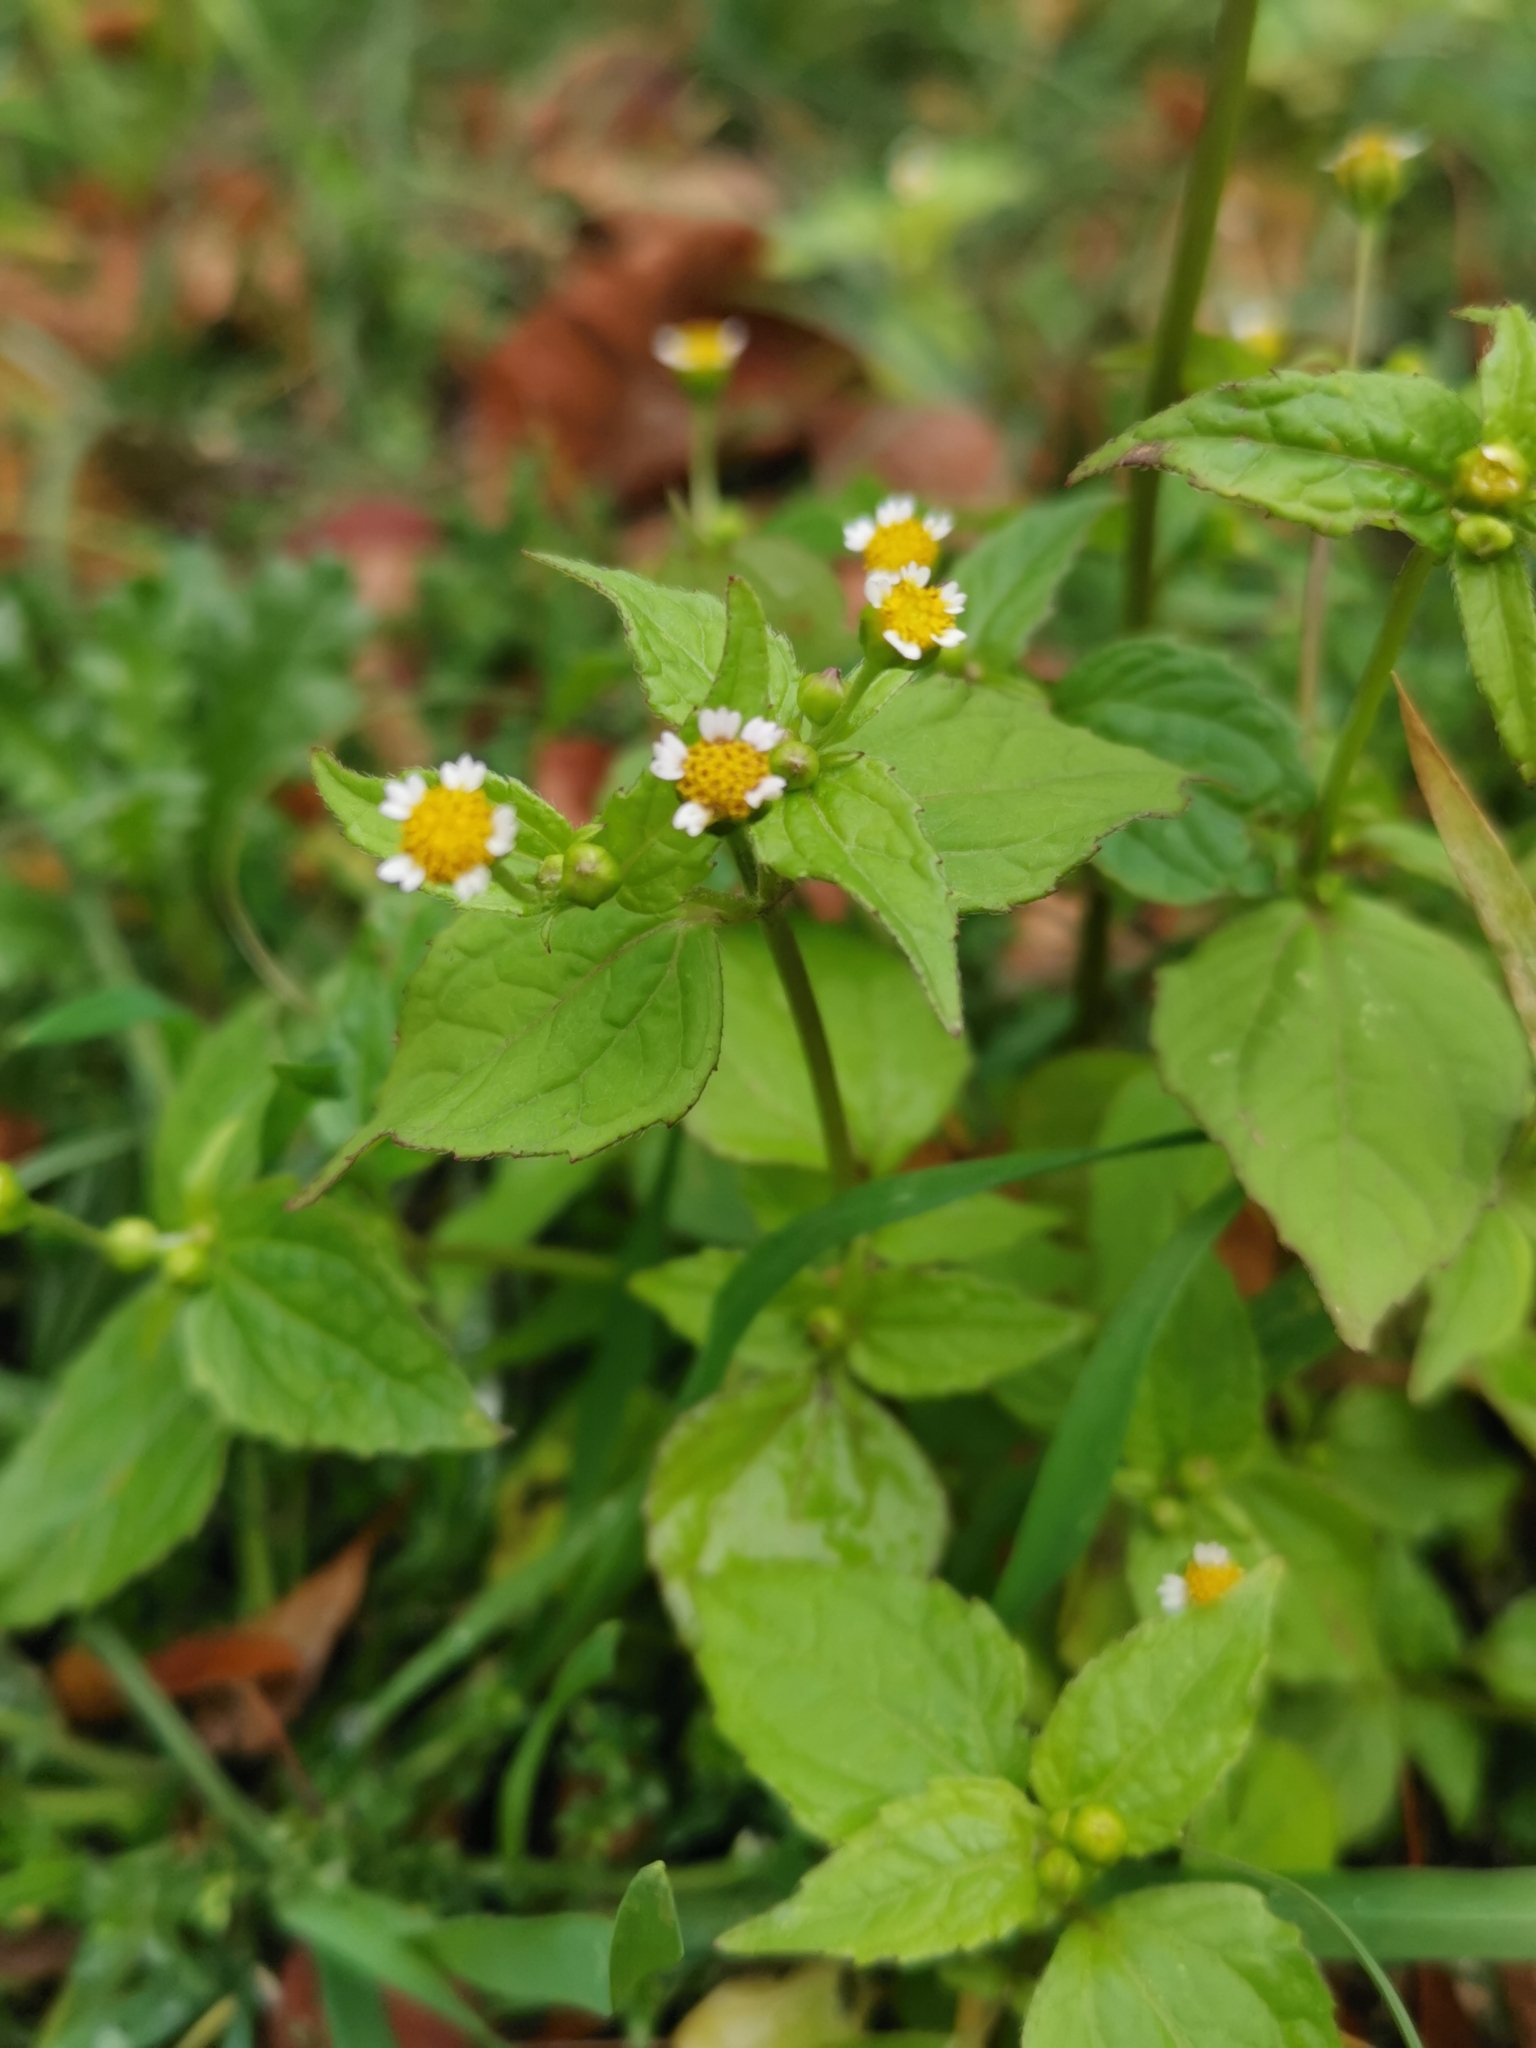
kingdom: Plantae
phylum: Tracheophyta
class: Magnoliopsida
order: Asterales
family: Asteraceae
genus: Galinsoga
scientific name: Galinsoga parviflora
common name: Gallant soldier
